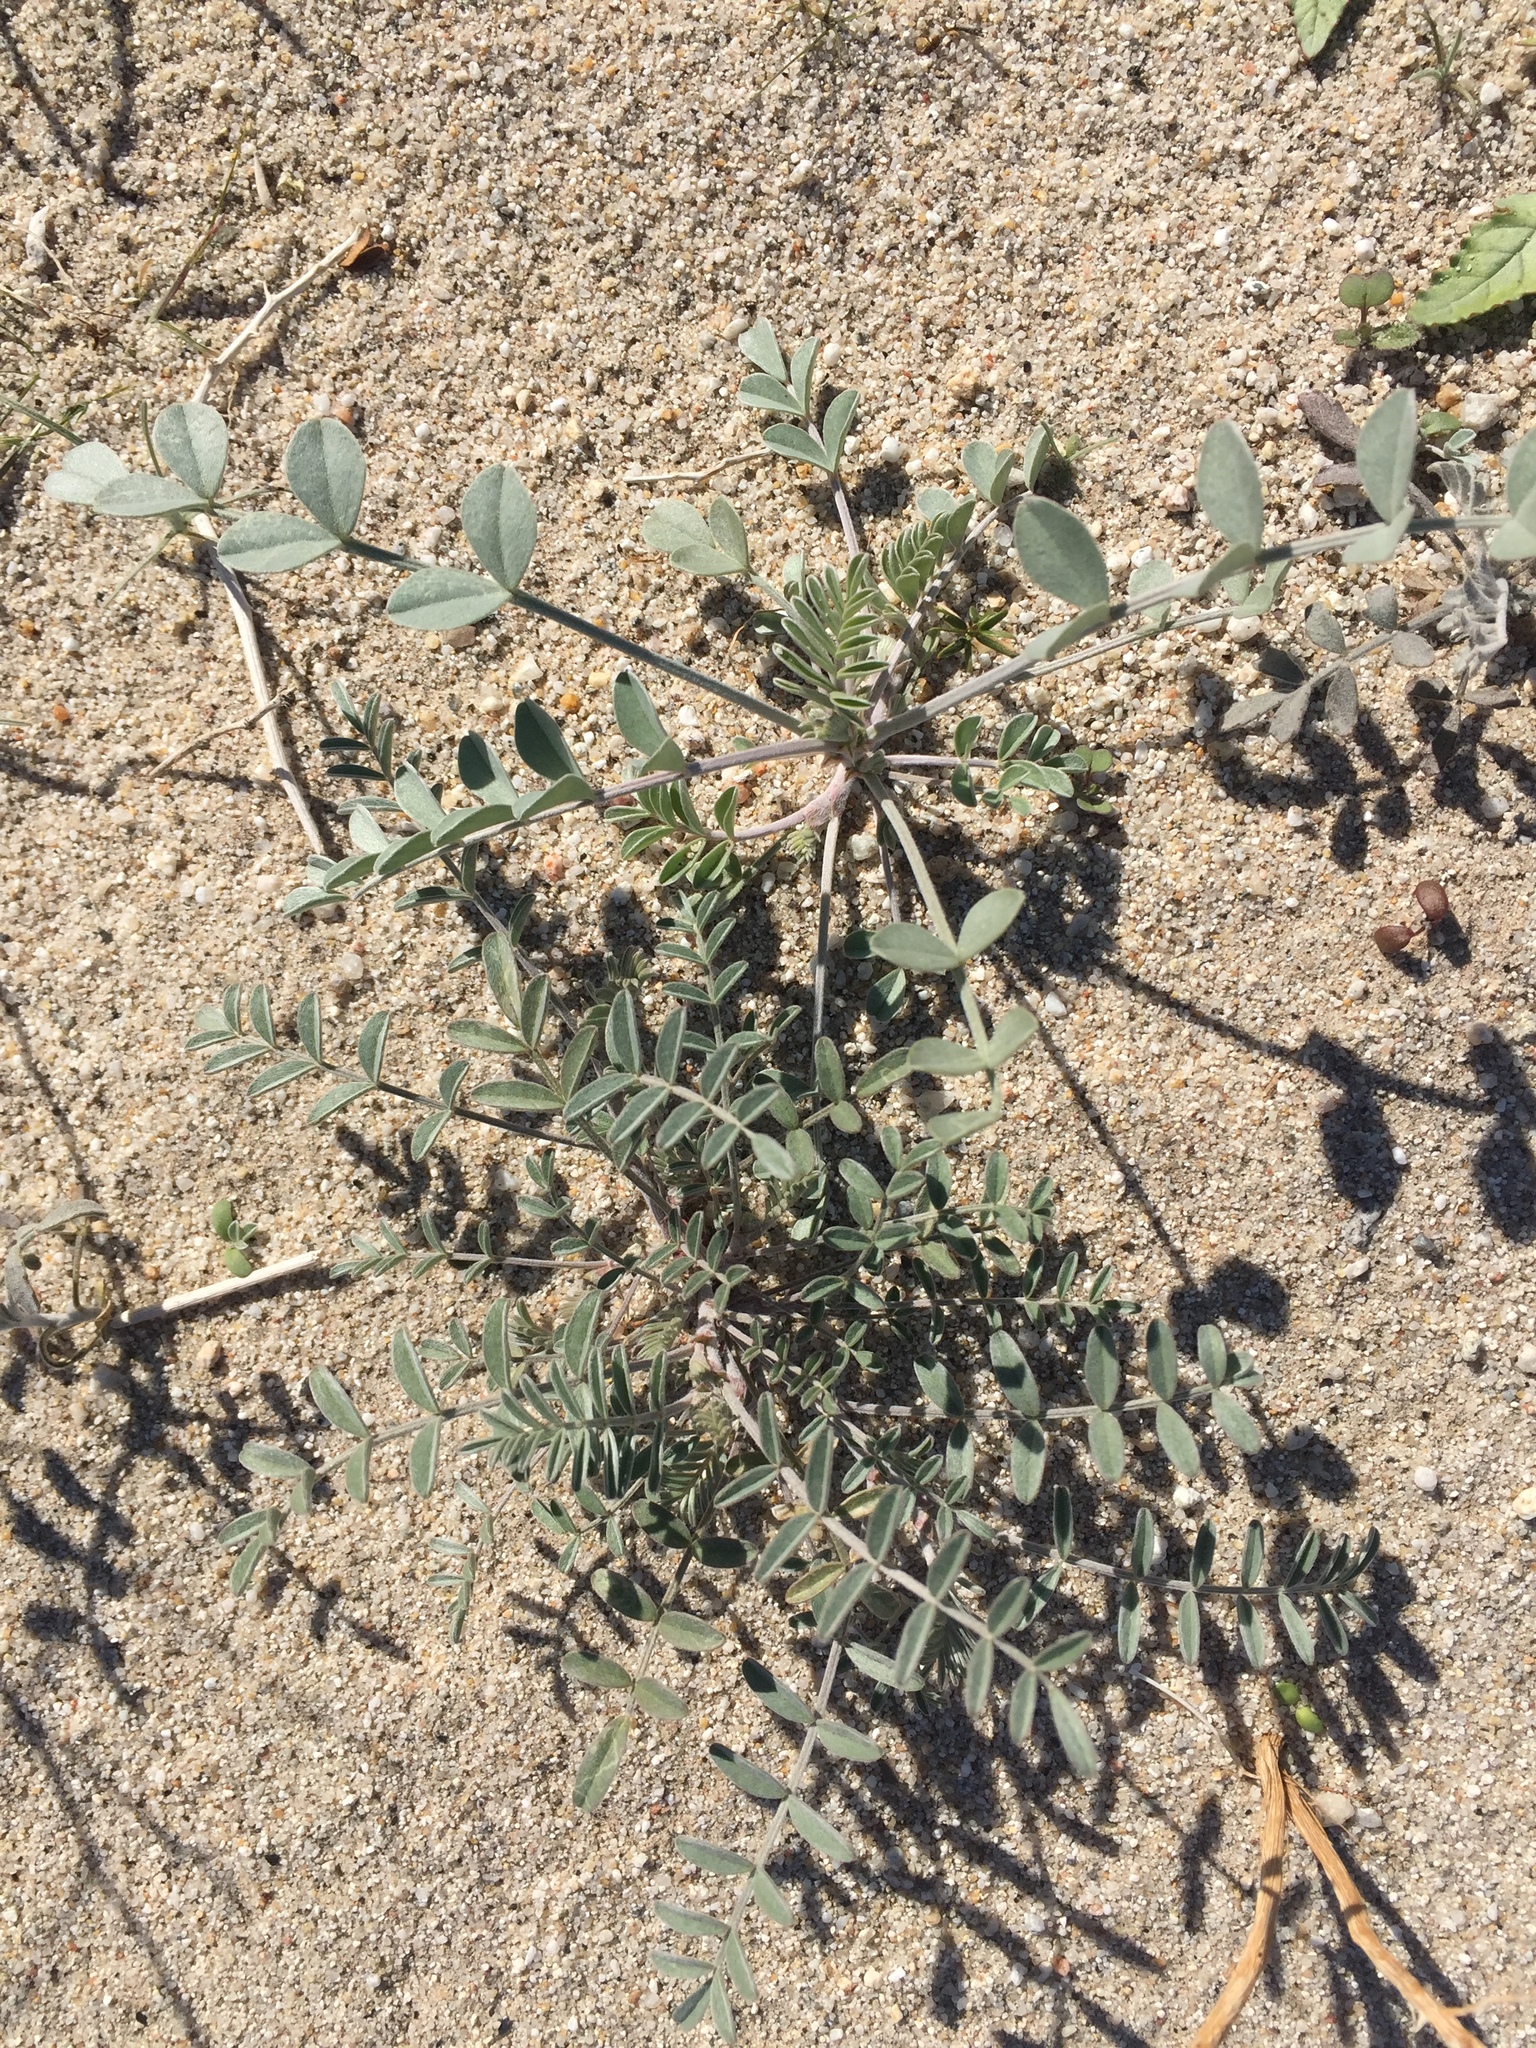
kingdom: Plantae
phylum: Tracheophyta
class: Magnoliopsida
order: Fabales
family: Fabaceae
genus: Astragalus
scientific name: Astragalus aridus
